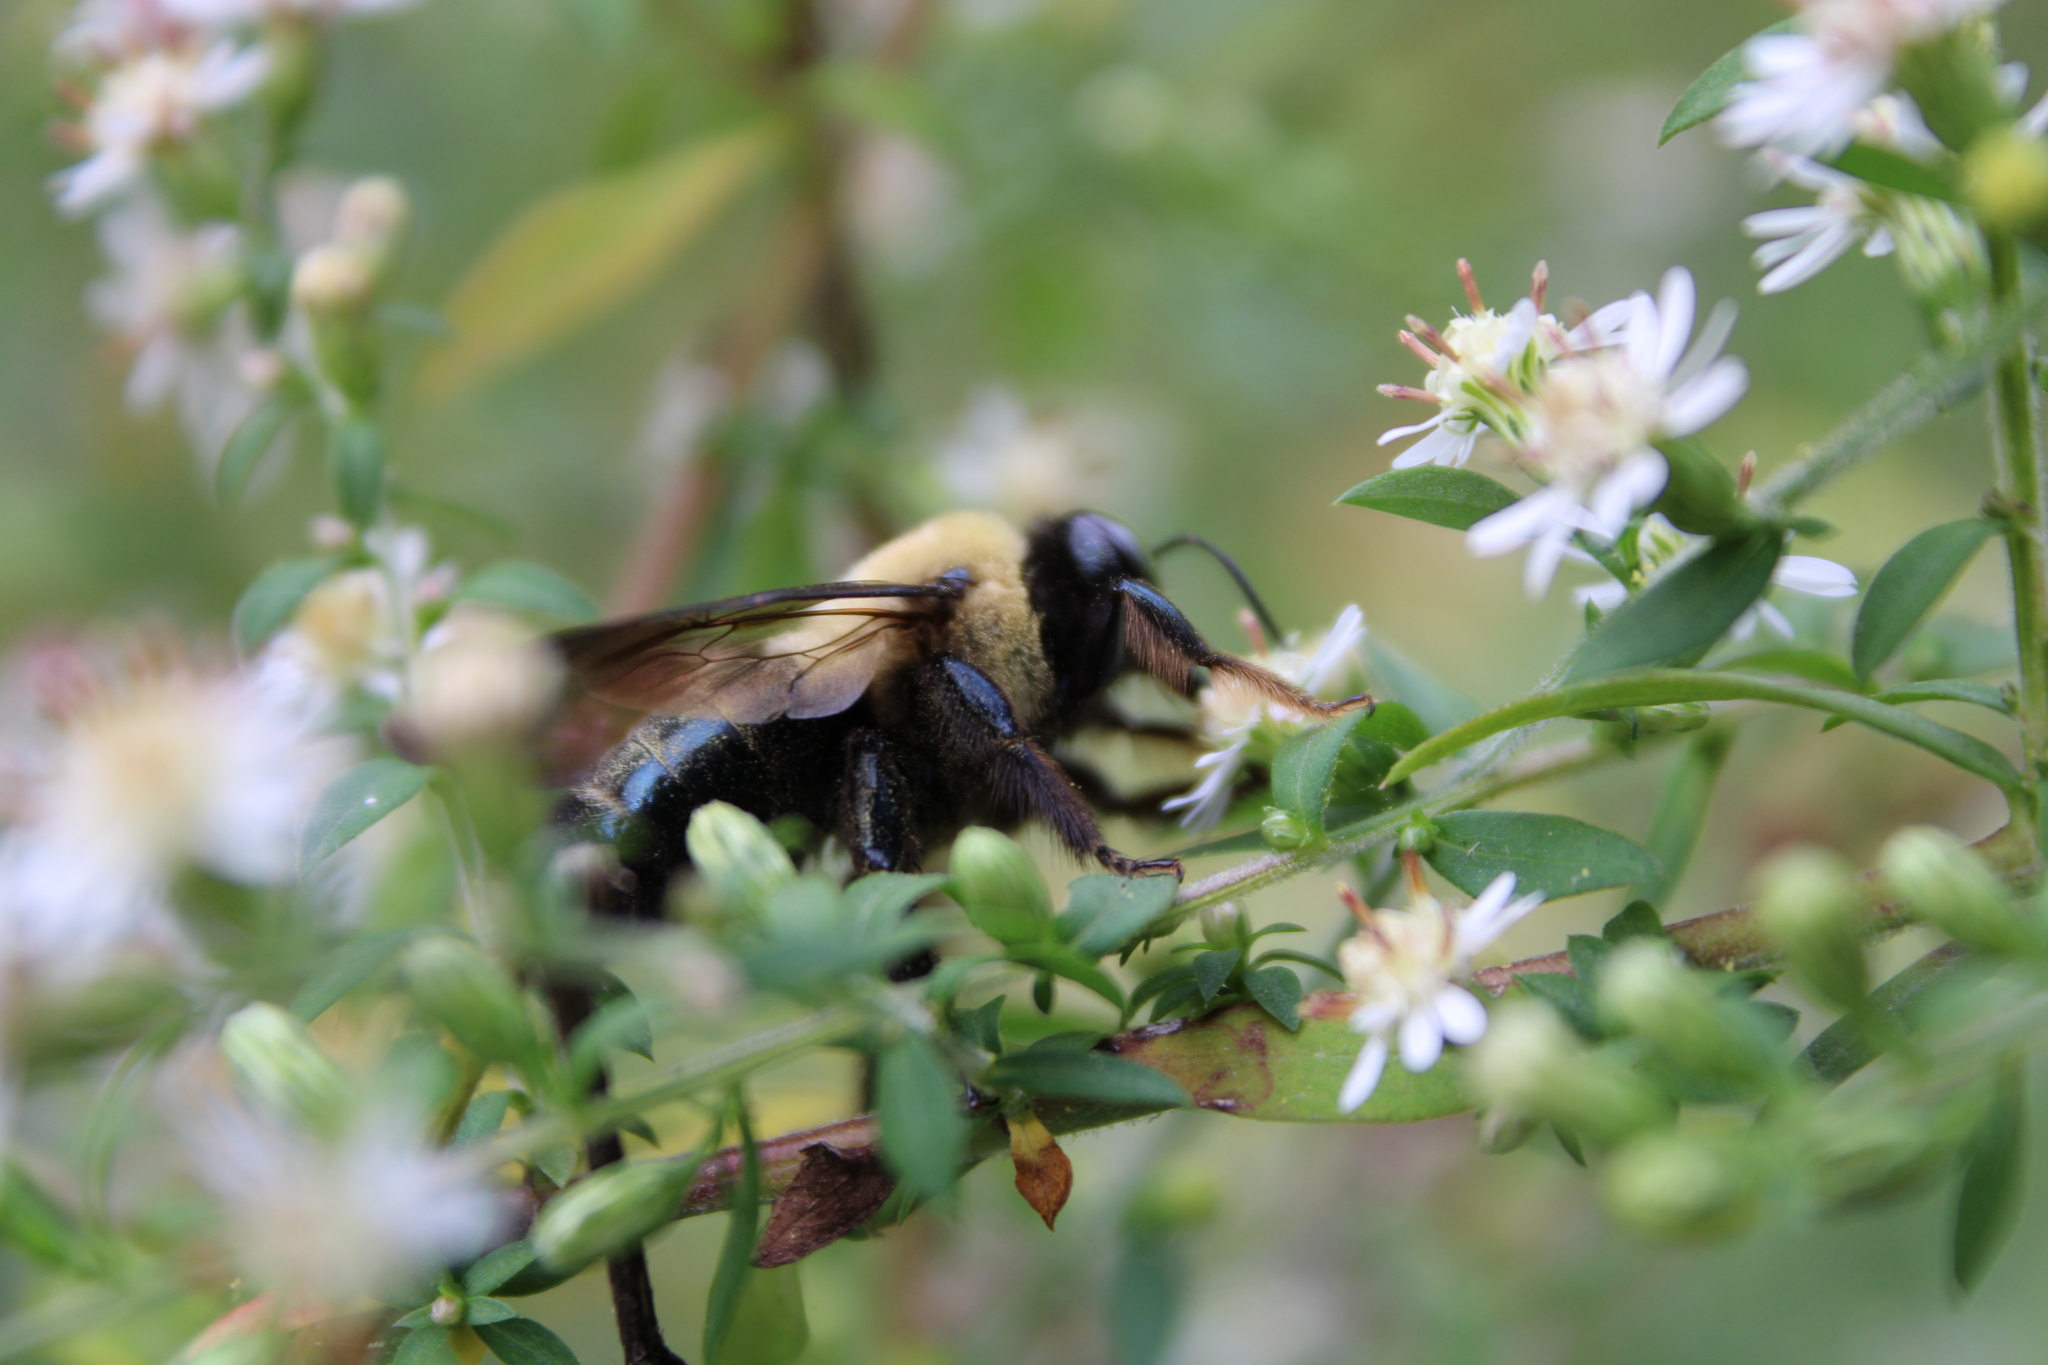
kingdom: Animalia
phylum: Arthropoda
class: Insecta
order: Hymenoptera
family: Apidae
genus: Xylocopa
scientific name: Xylocopa virginica
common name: Carpenter bee
